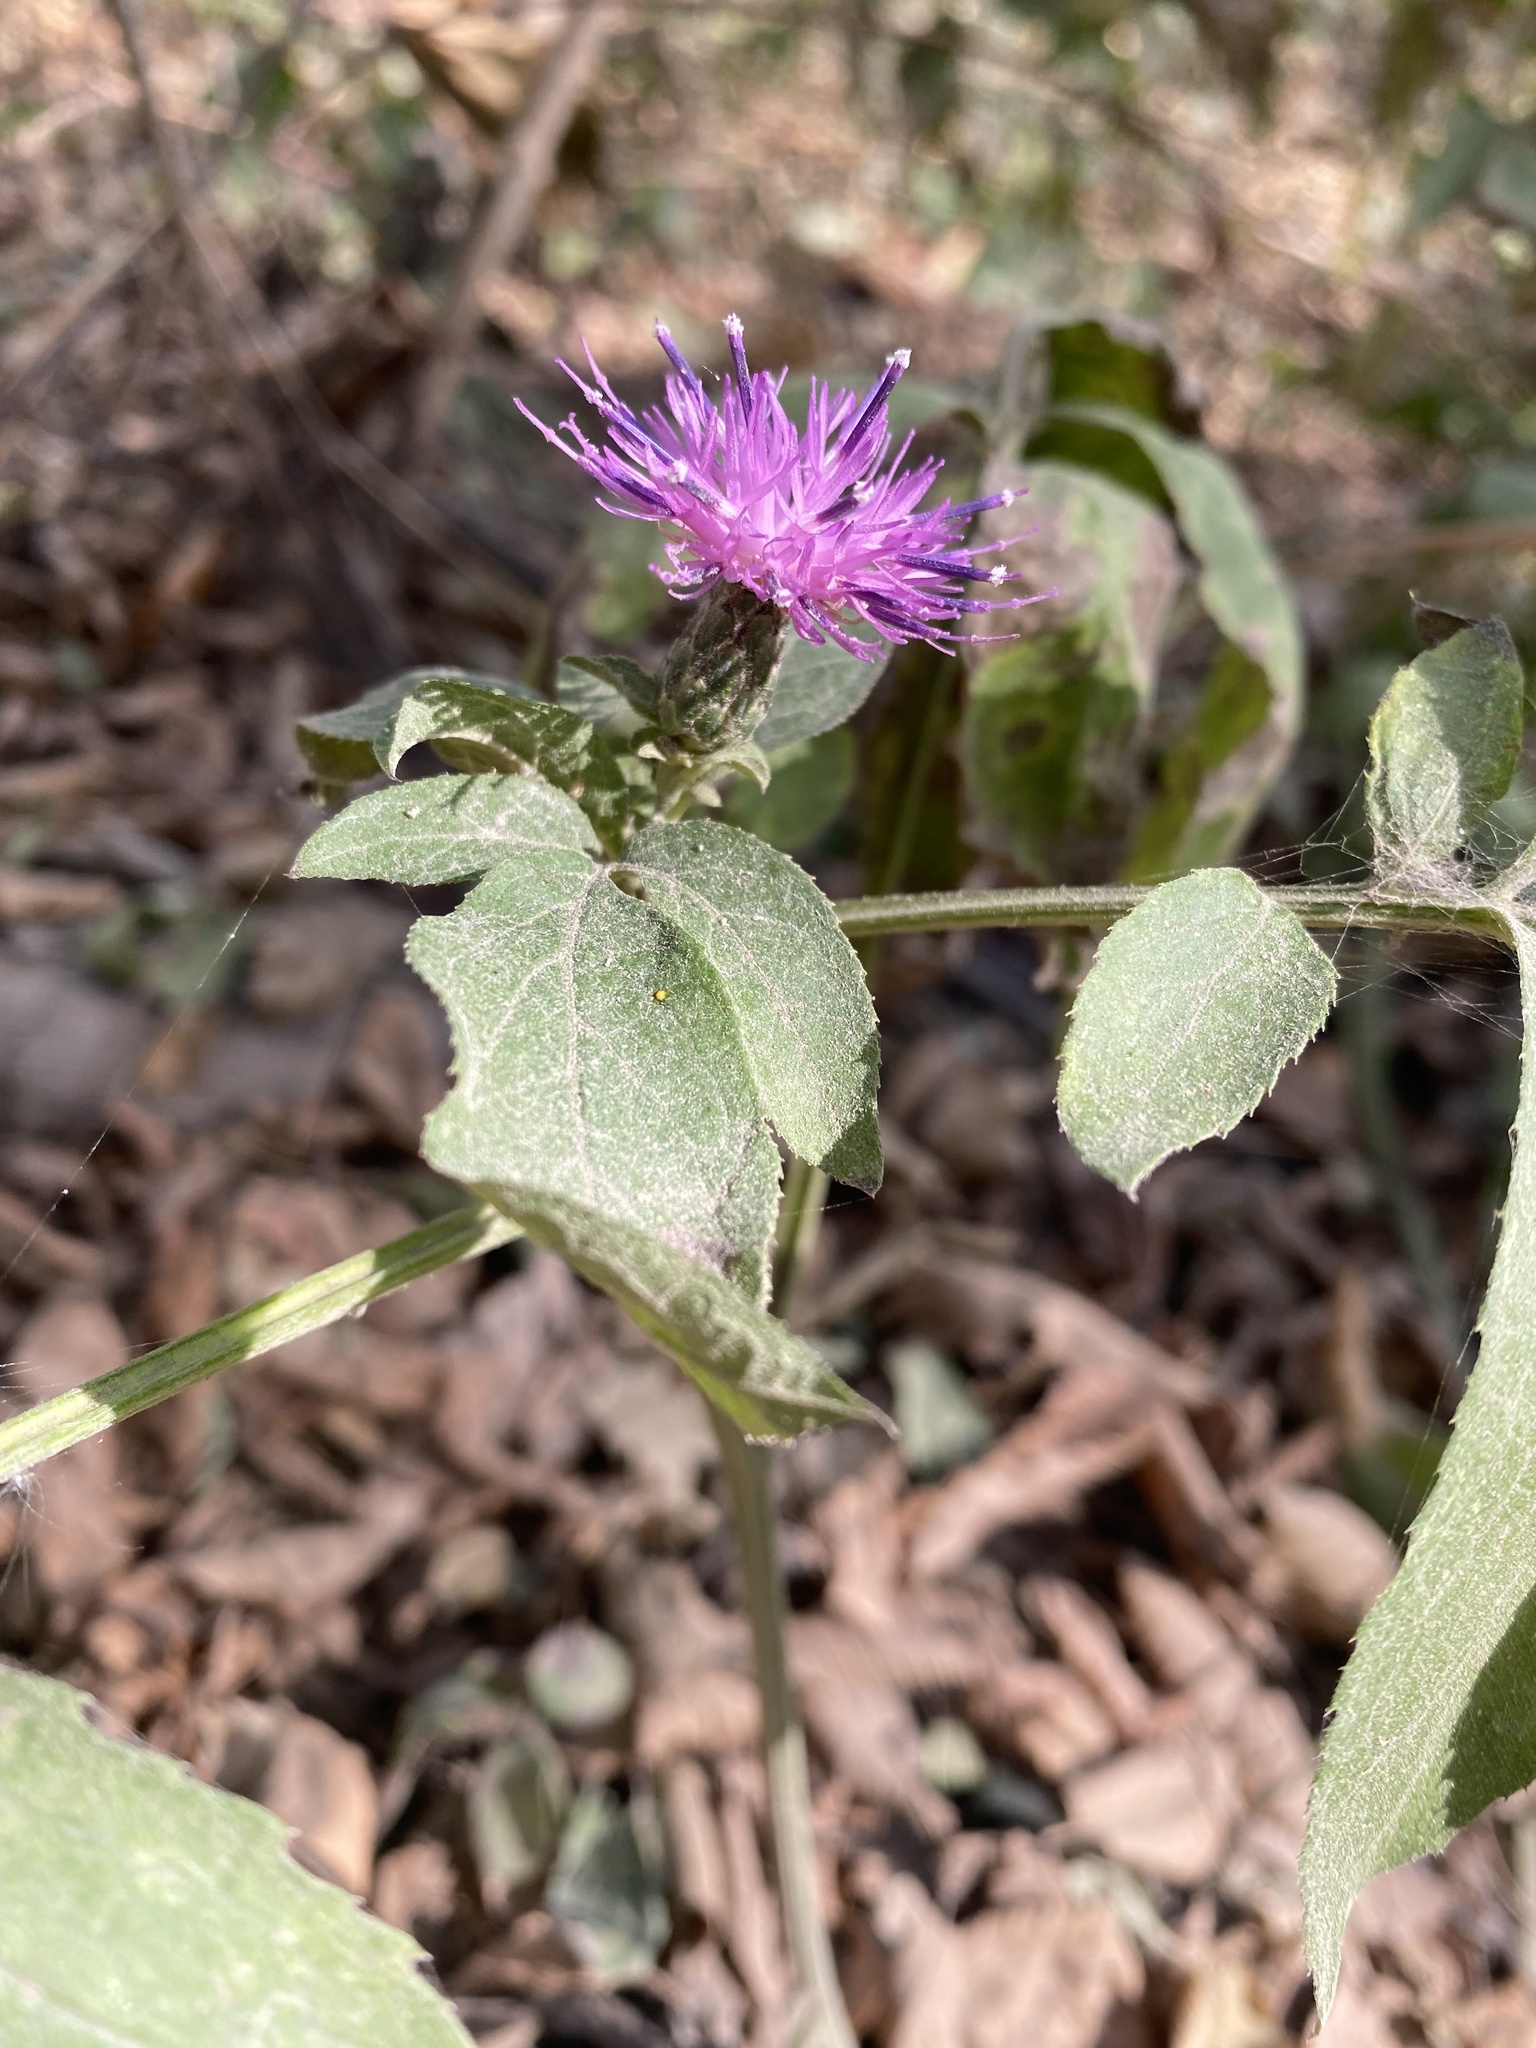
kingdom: Plantae
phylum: Tracheophyta
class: Magnoliopsida
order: Asterales
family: Asteraceae
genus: Klasea
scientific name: Klasea quinquefolia
